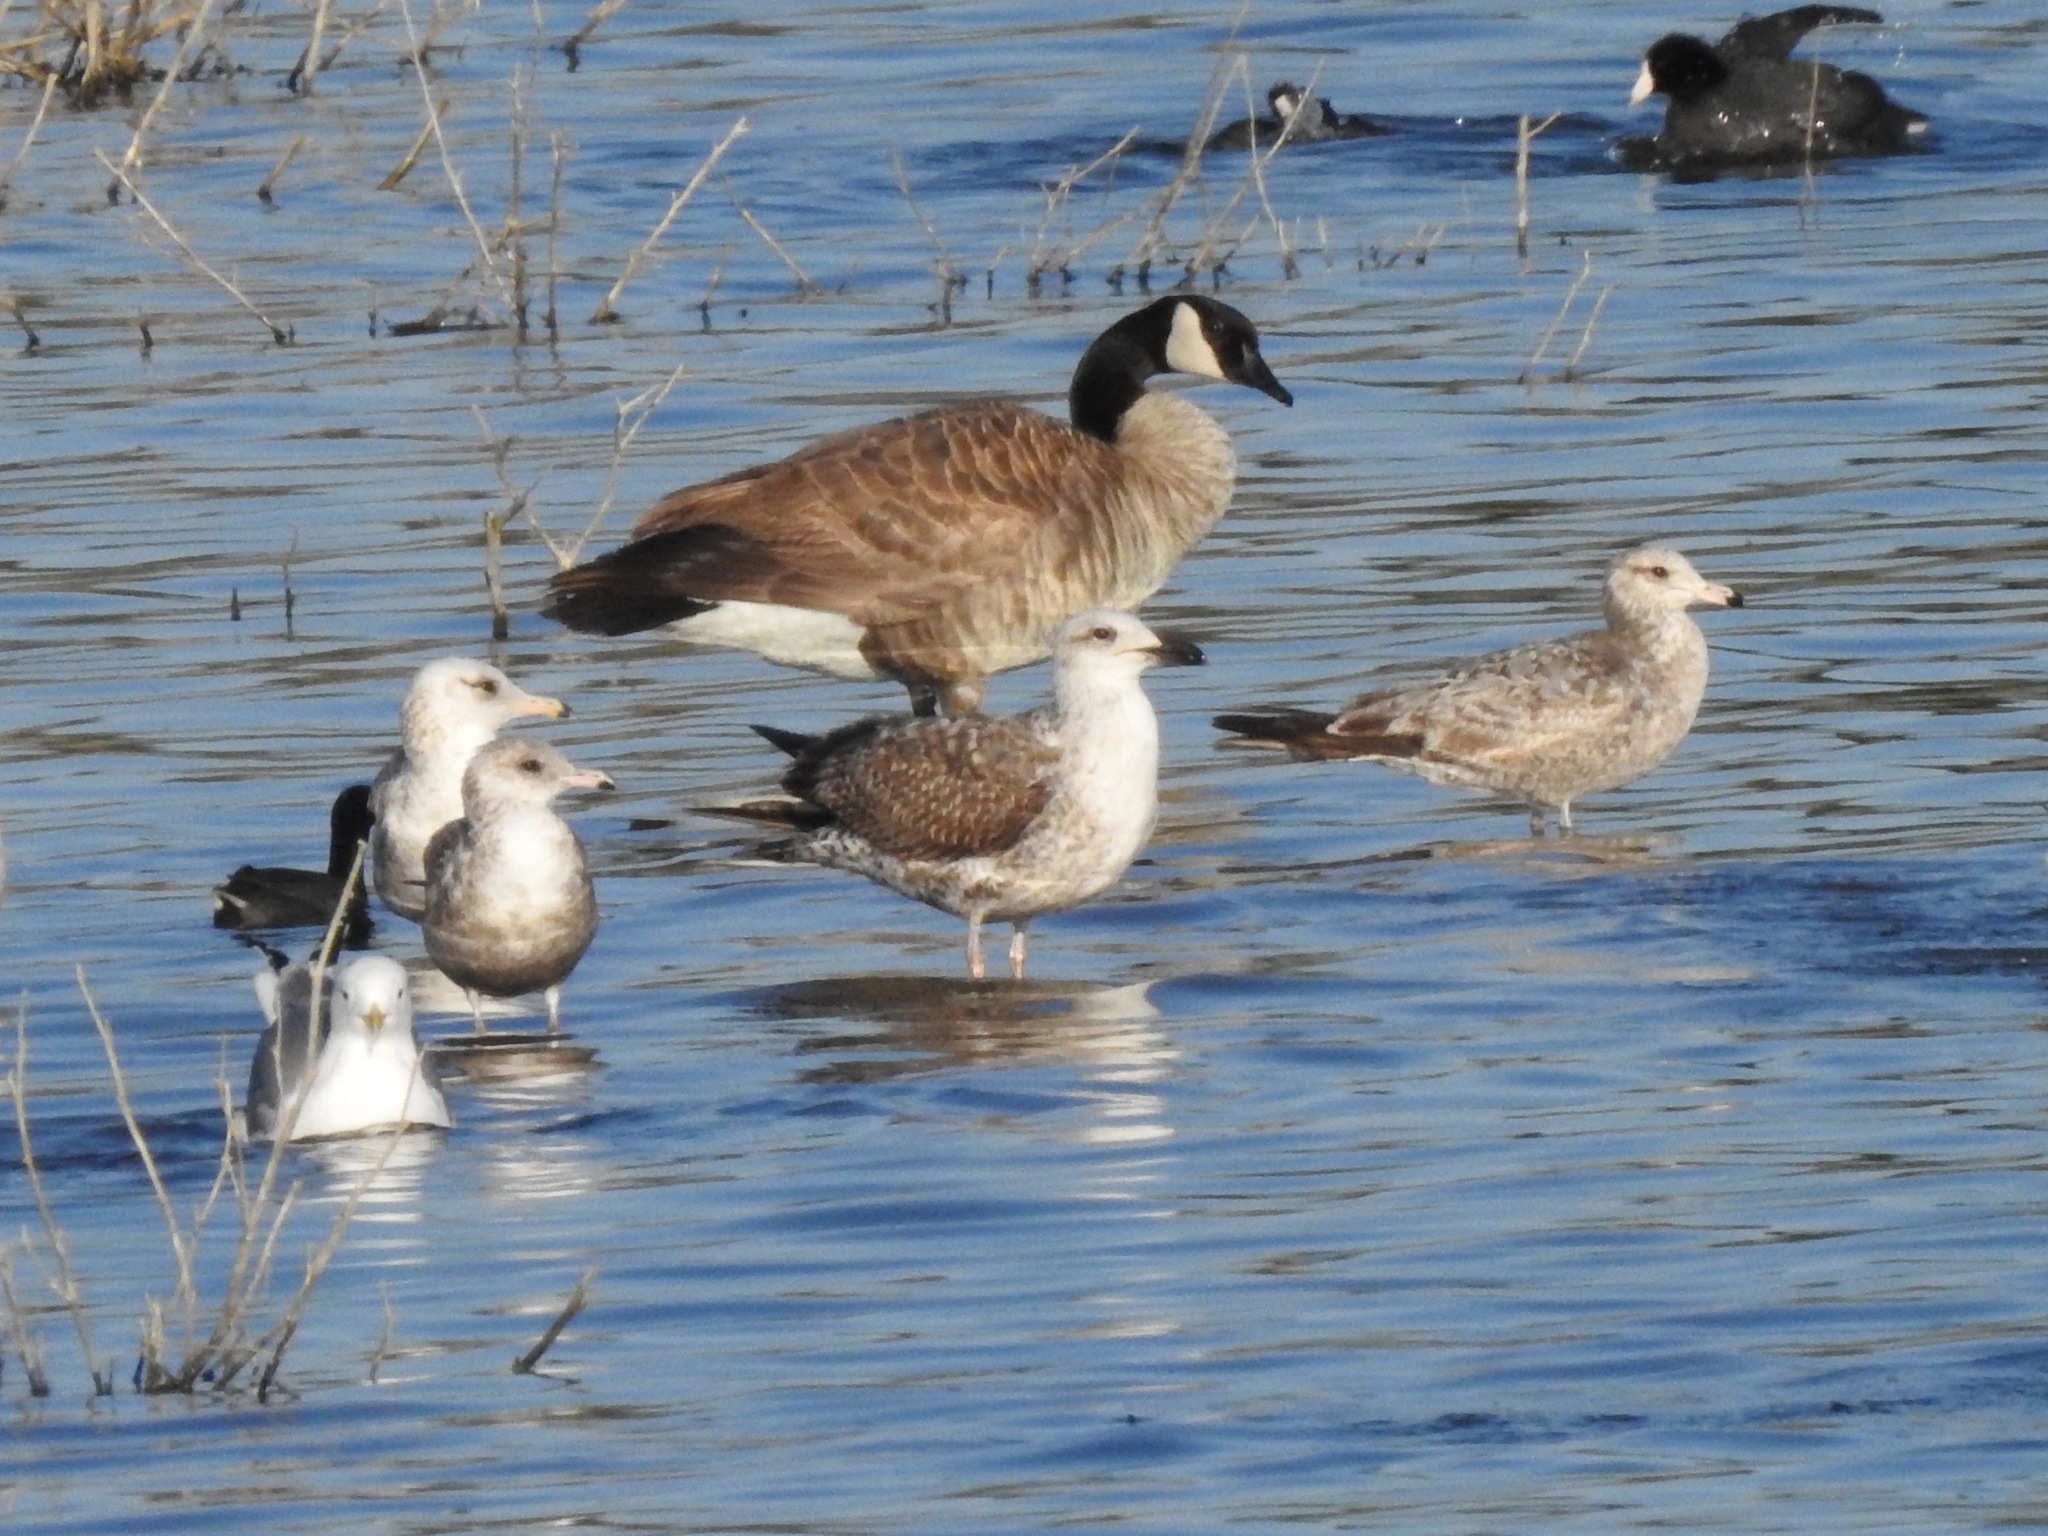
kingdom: Animalia
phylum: Chordata
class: Aves
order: Charadriiformes
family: Laridae
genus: Larus
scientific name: Larus fuscus
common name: Lesser black-backed gull
